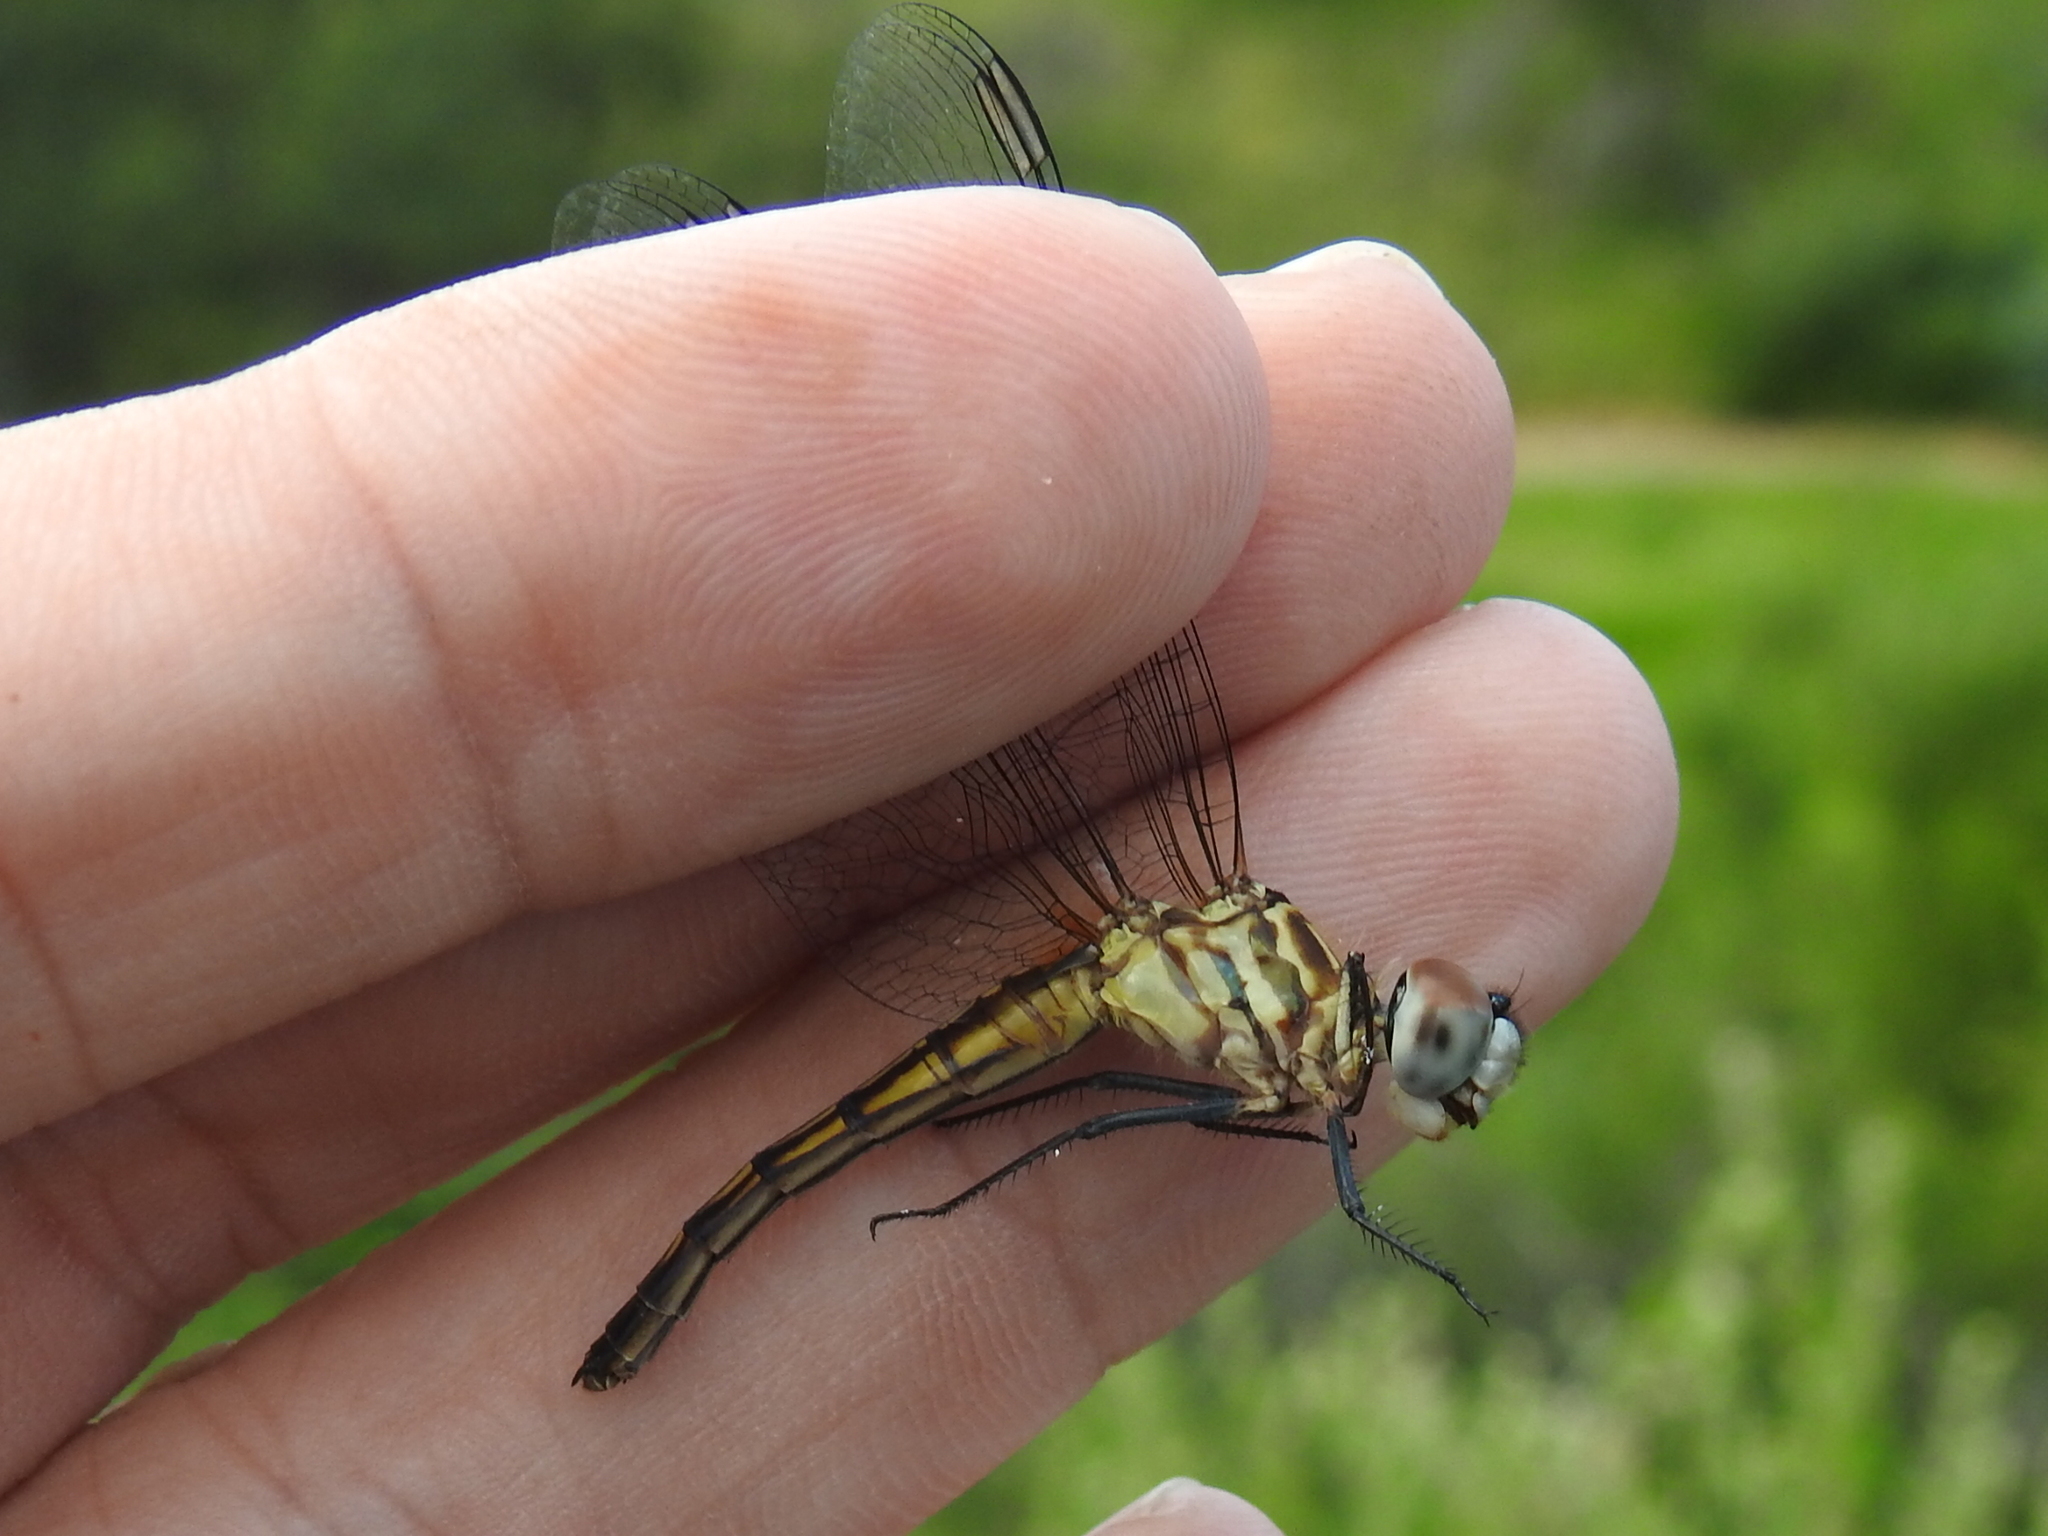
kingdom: Animalia
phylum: Arthropoda
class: Insecta
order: Odonata
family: Libellulidae
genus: Pachydiplax
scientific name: Pachydiplax longipennis
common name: Blue dasher
